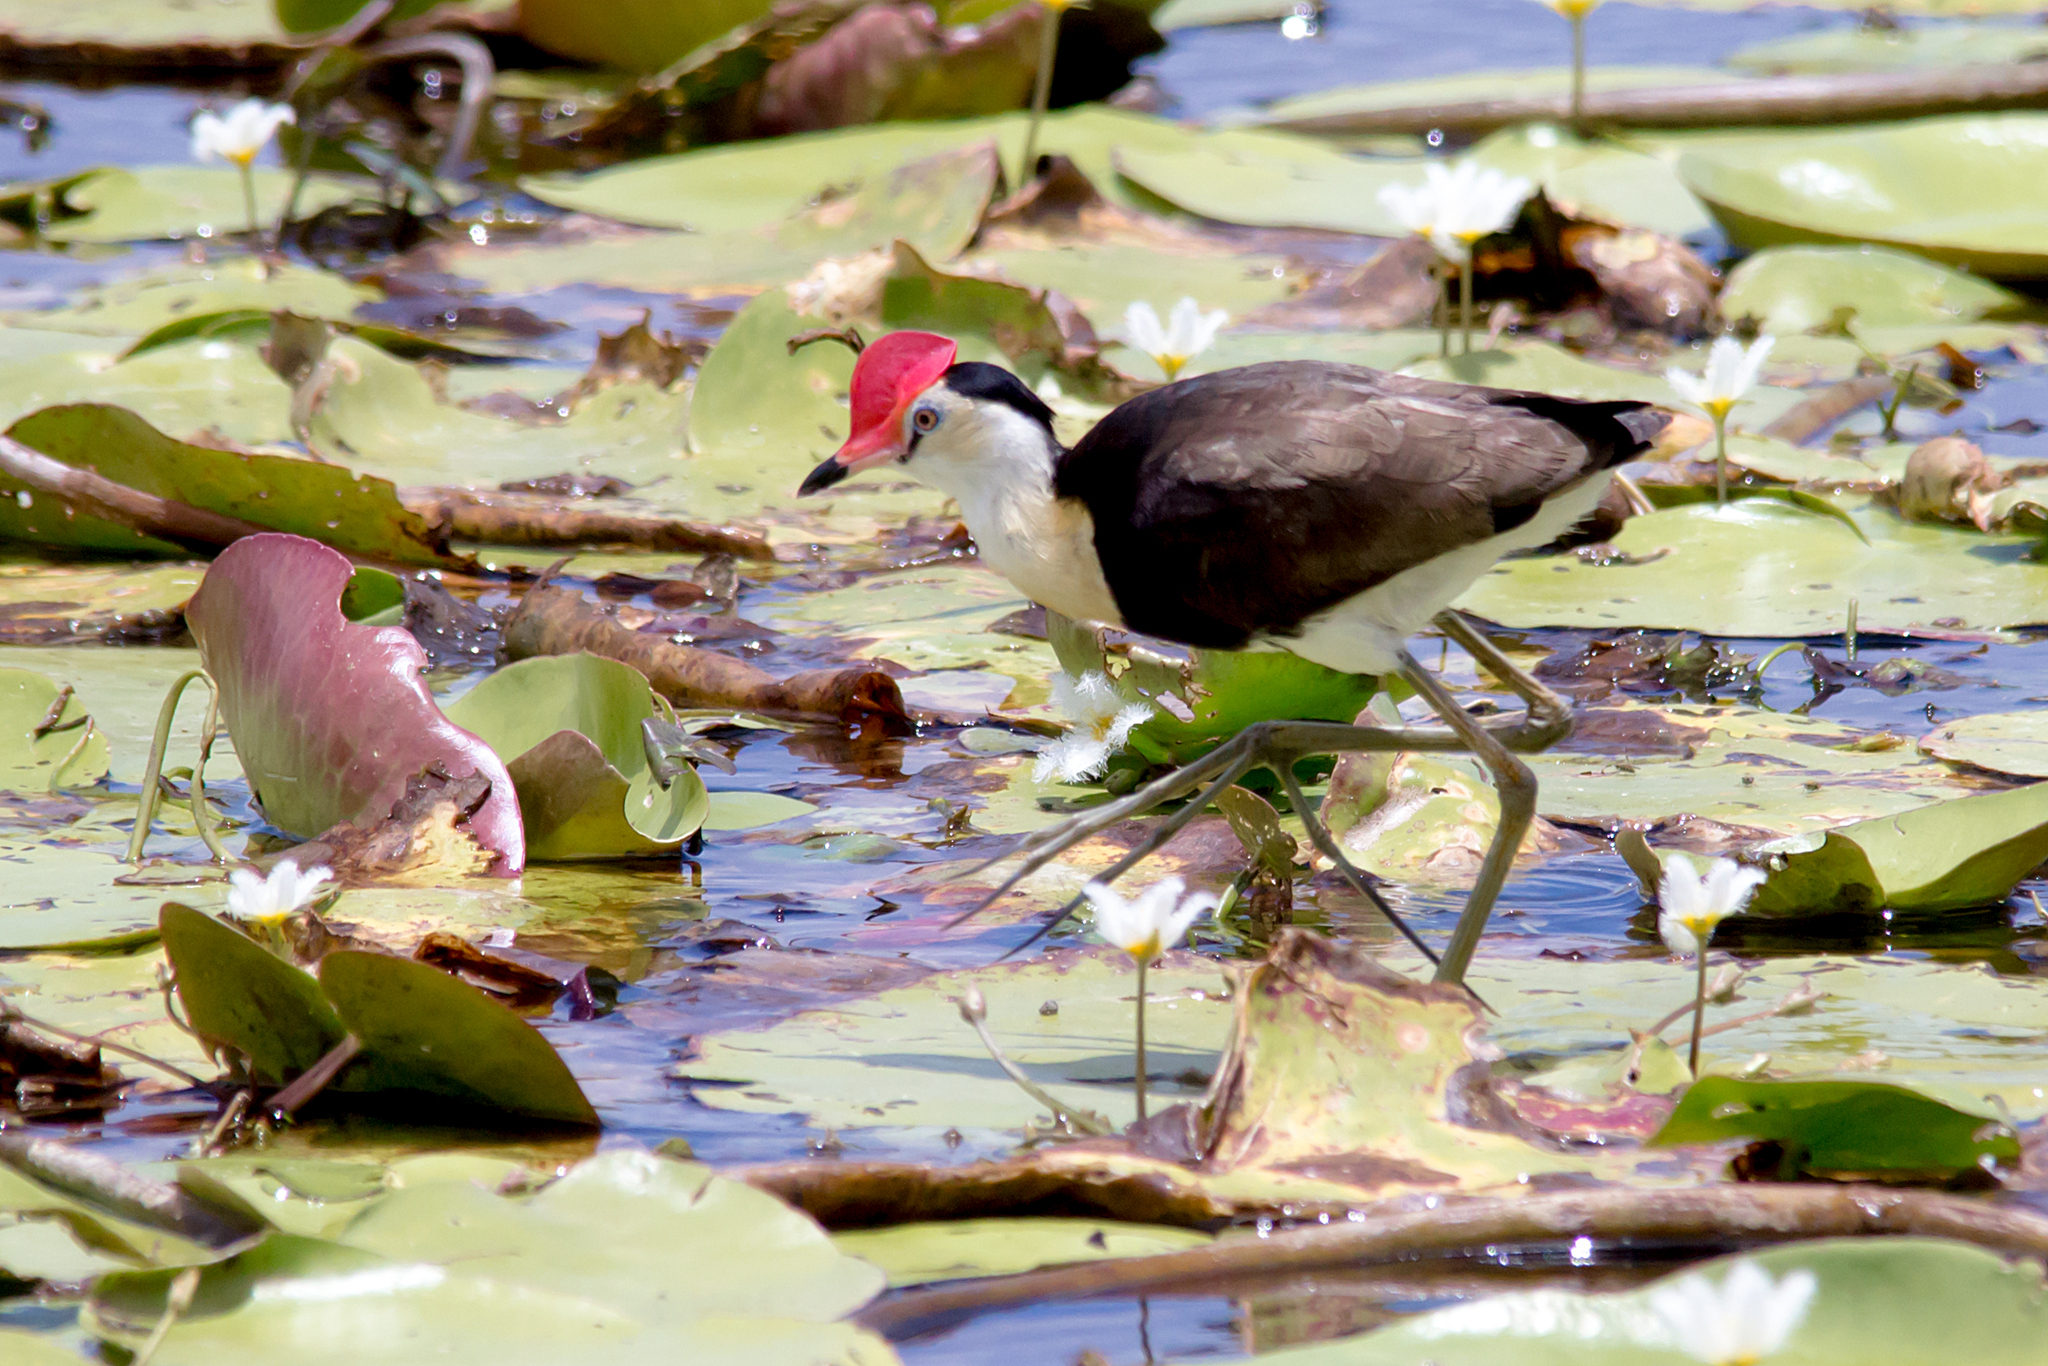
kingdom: Animalia
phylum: Chordata
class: Aves
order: Charadriiformes
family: Jacanidae
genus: Irediparra
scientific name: Irediparra gallinacea
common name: Comb-crested jacana
